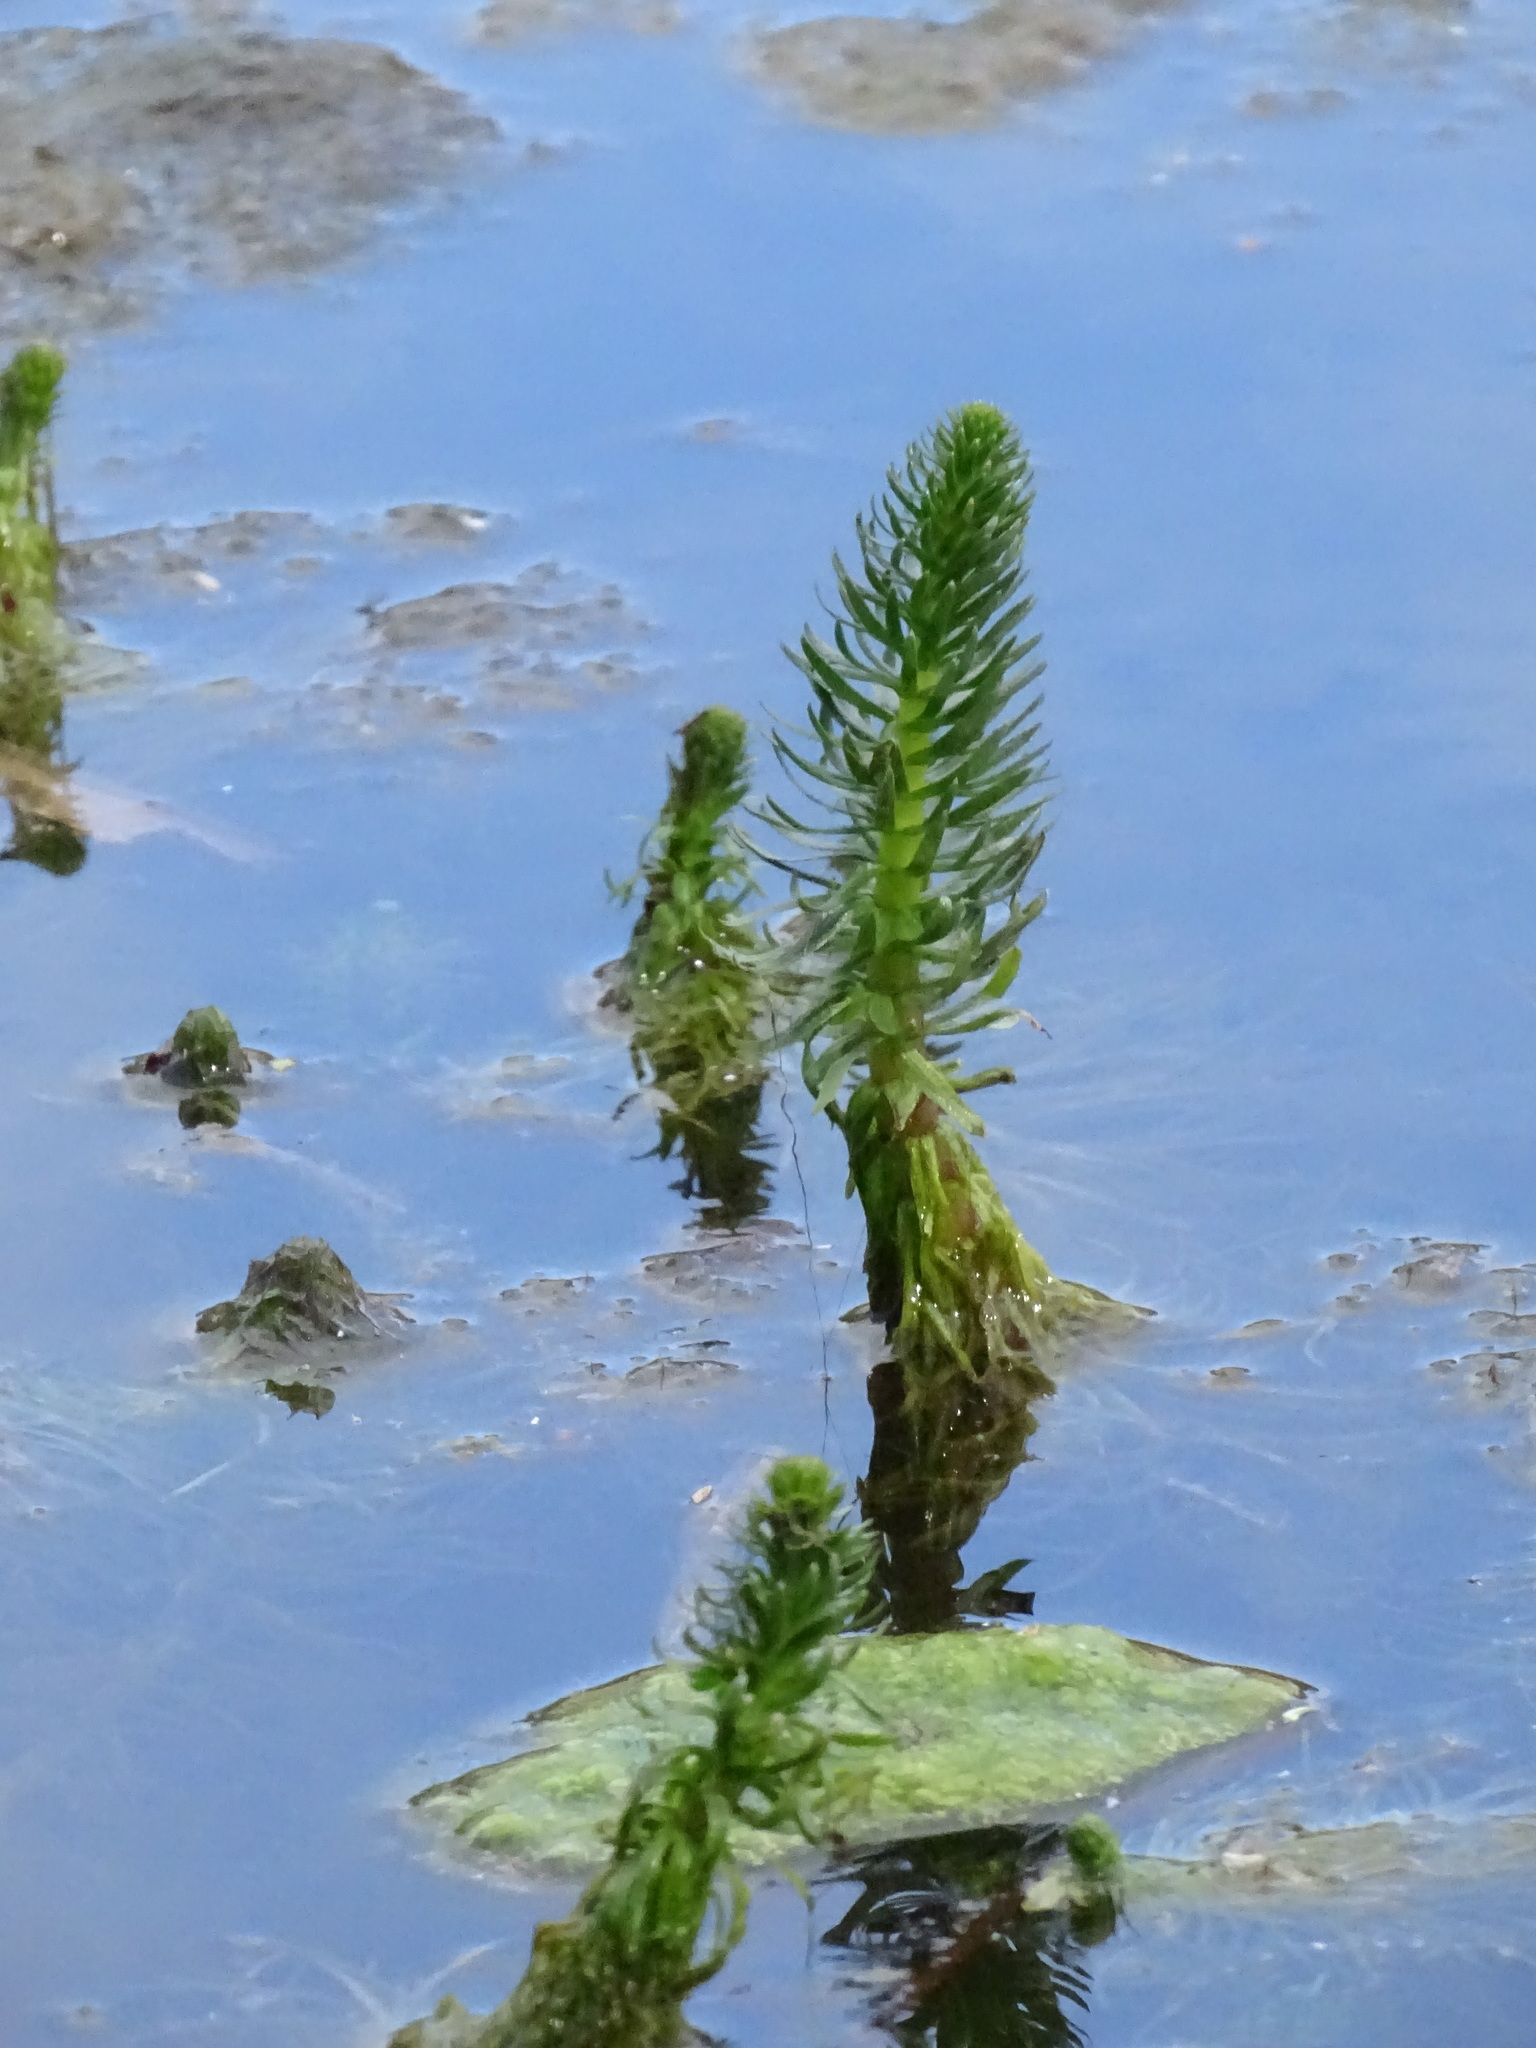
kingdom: Plantae
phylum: Tracheophyta
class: Magnoliopsida
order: Lamiales
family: Plantaginaceae
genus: Hippuris
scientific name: Hippuris vulgaris
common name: Mare's-tail
